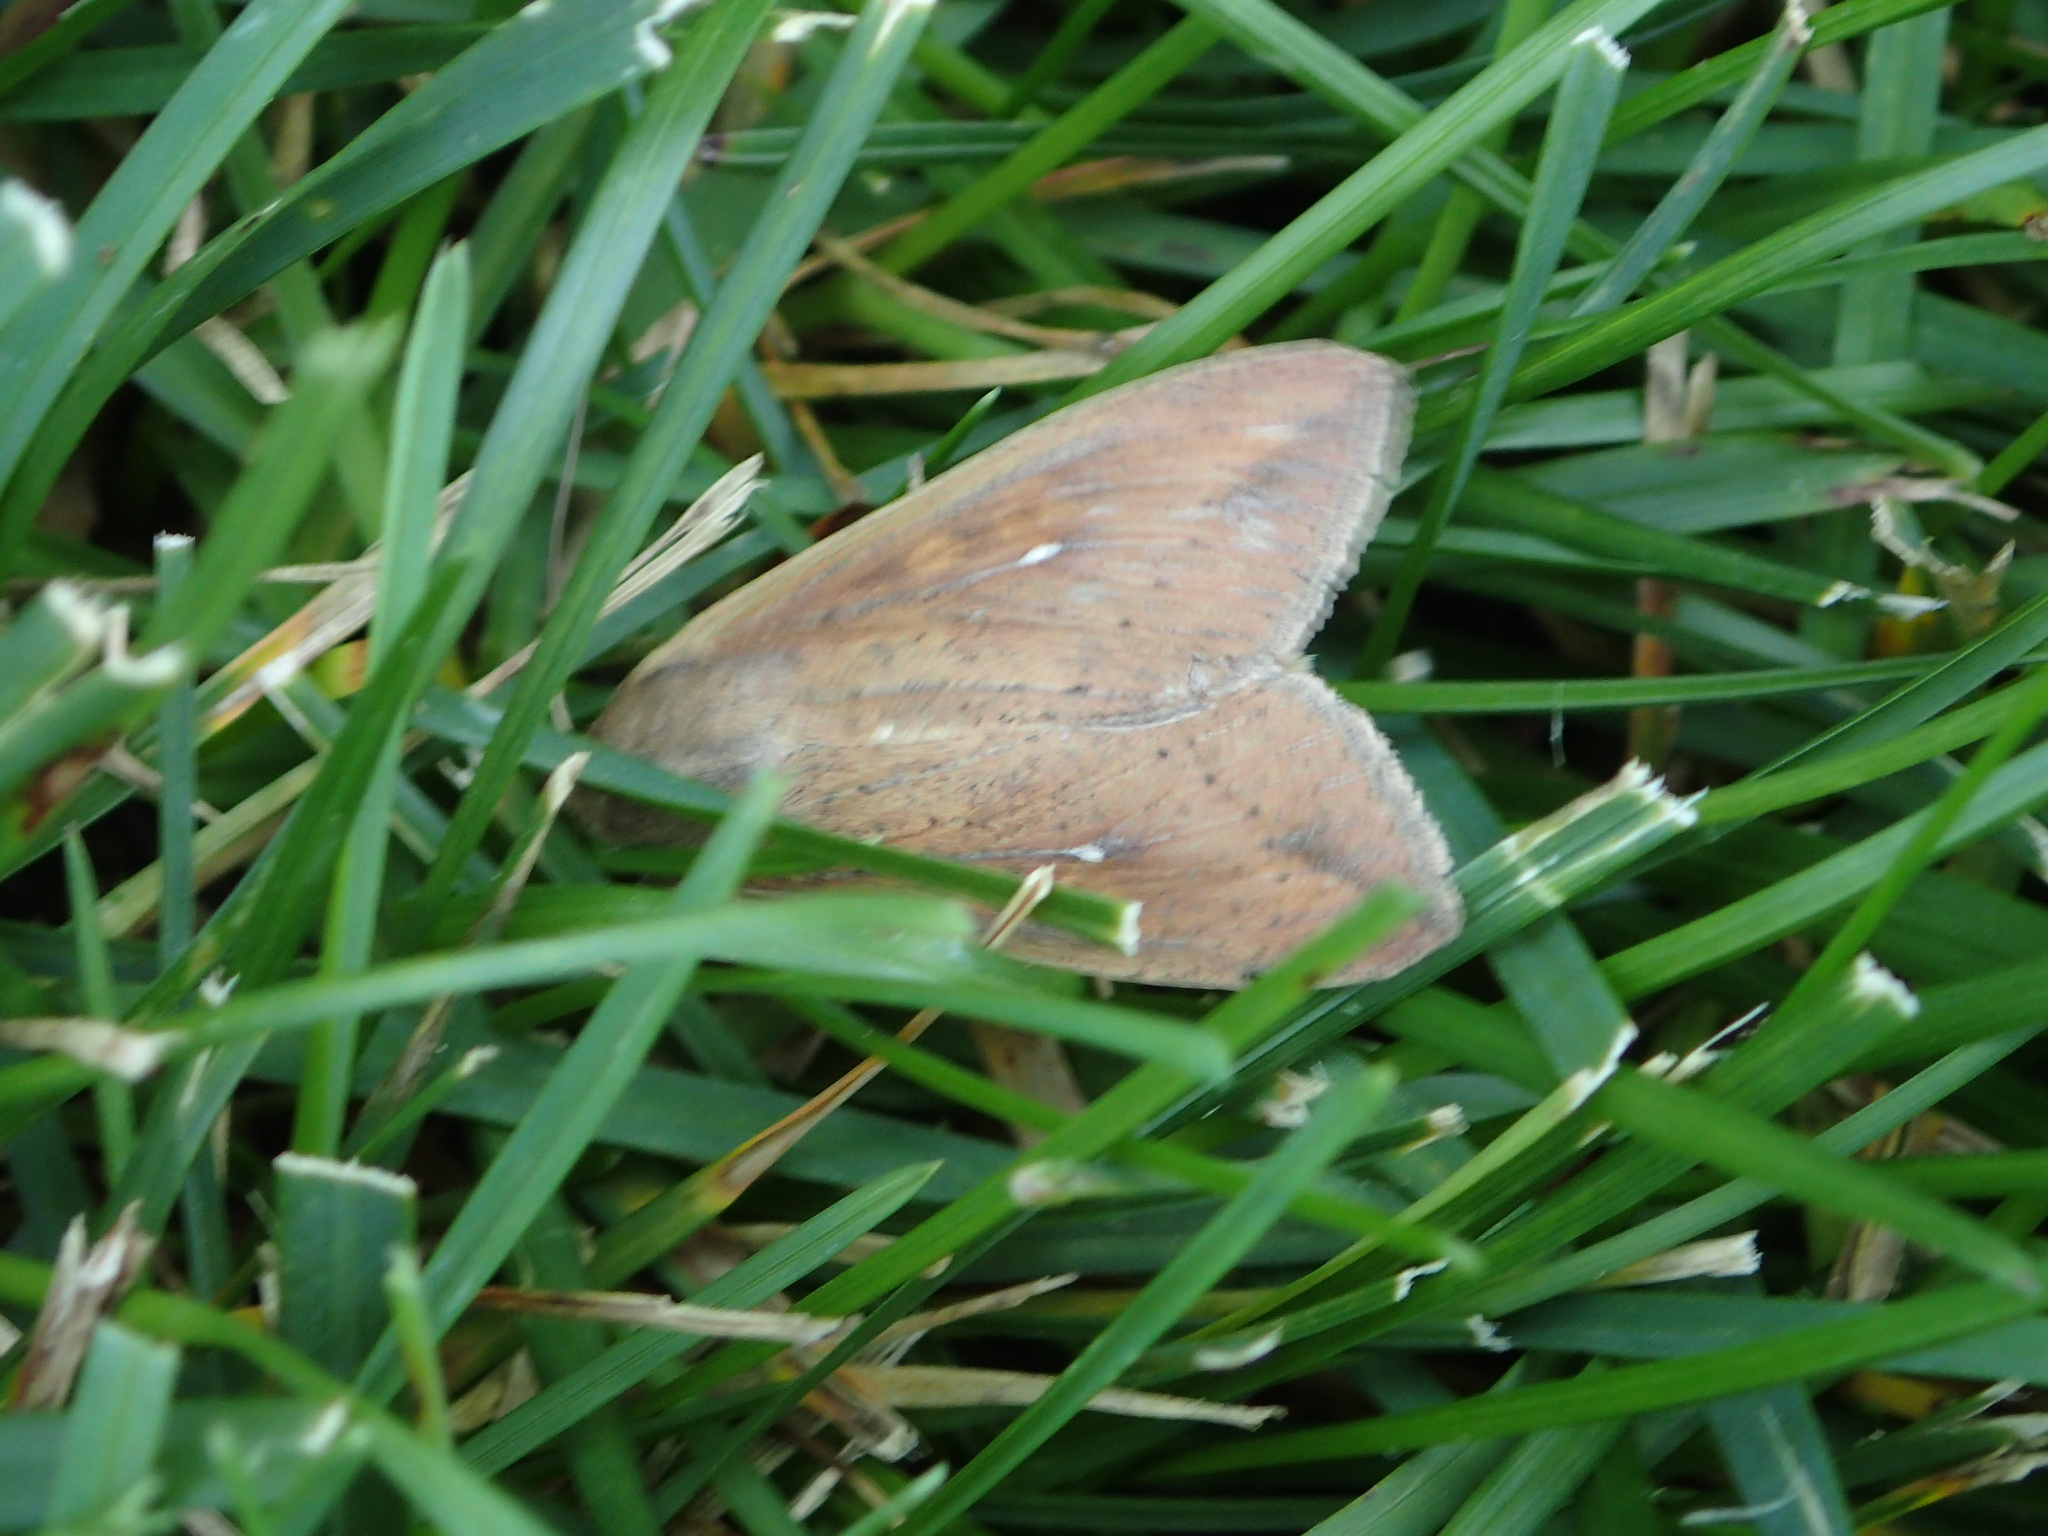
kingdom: Animalia
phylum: Arthropoda
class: Insecta
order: Lepidoptera
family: Noctuidae
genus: Mythimna
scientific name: Mythimna unipuncta
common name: White-speck
